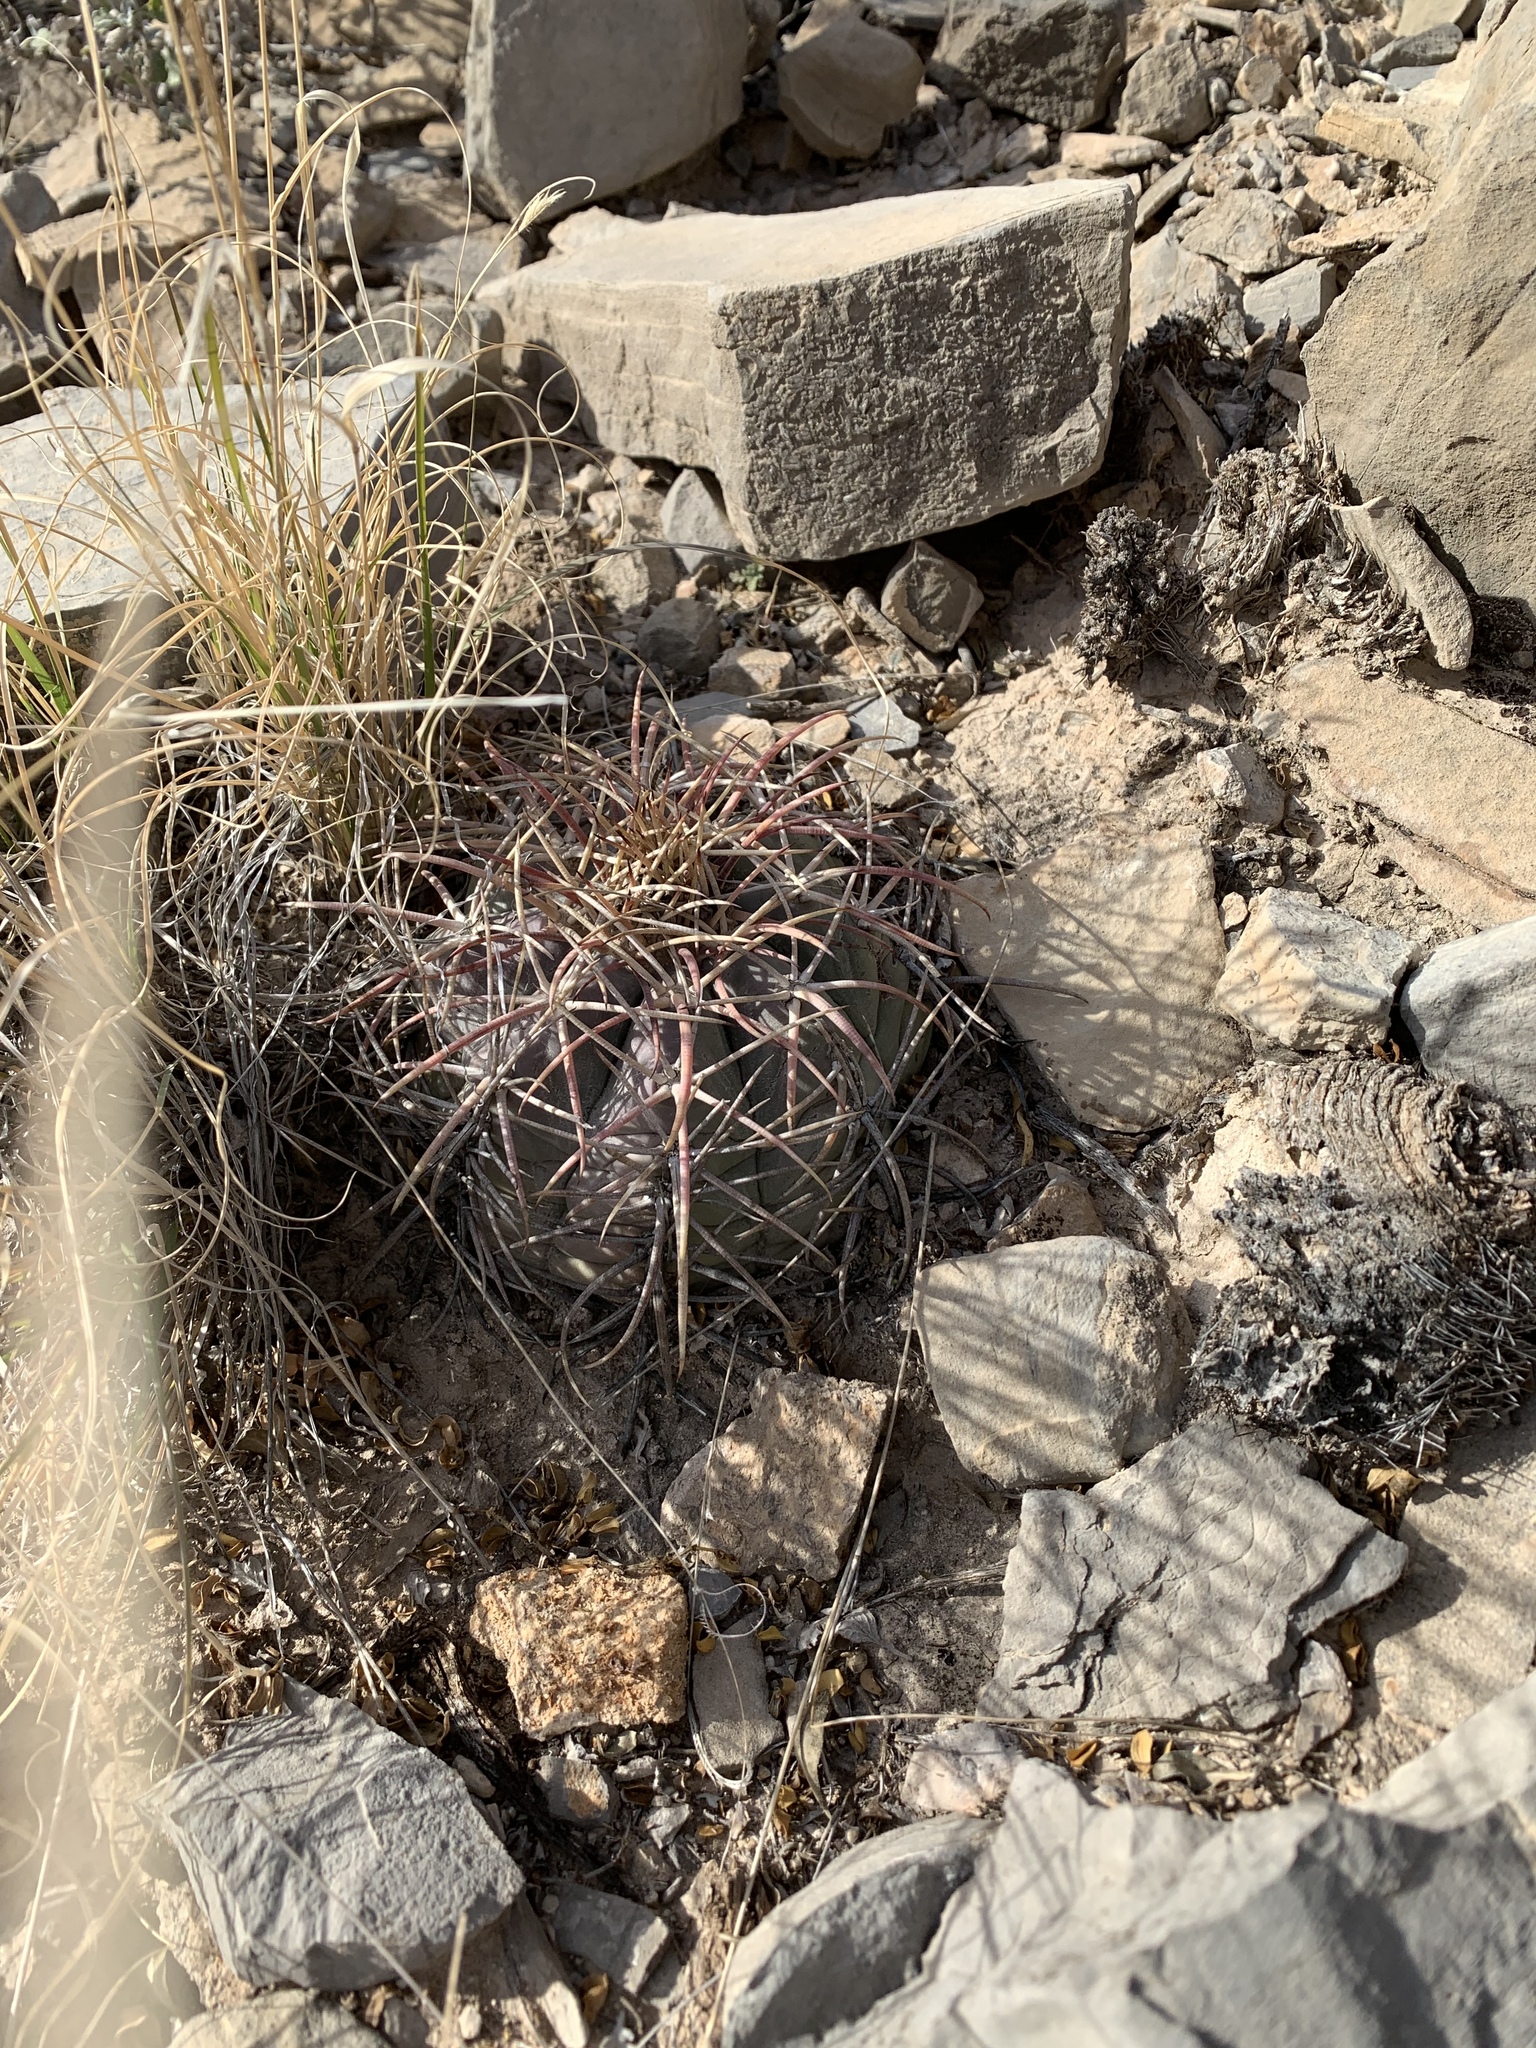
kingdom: Plantae
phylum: Tracheophyta
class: Magnoliopsida
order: Caryophyllales
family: Cactaceae
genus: Echinocactus
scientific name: Echinocactus horizonthalonius
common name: Devilshead
